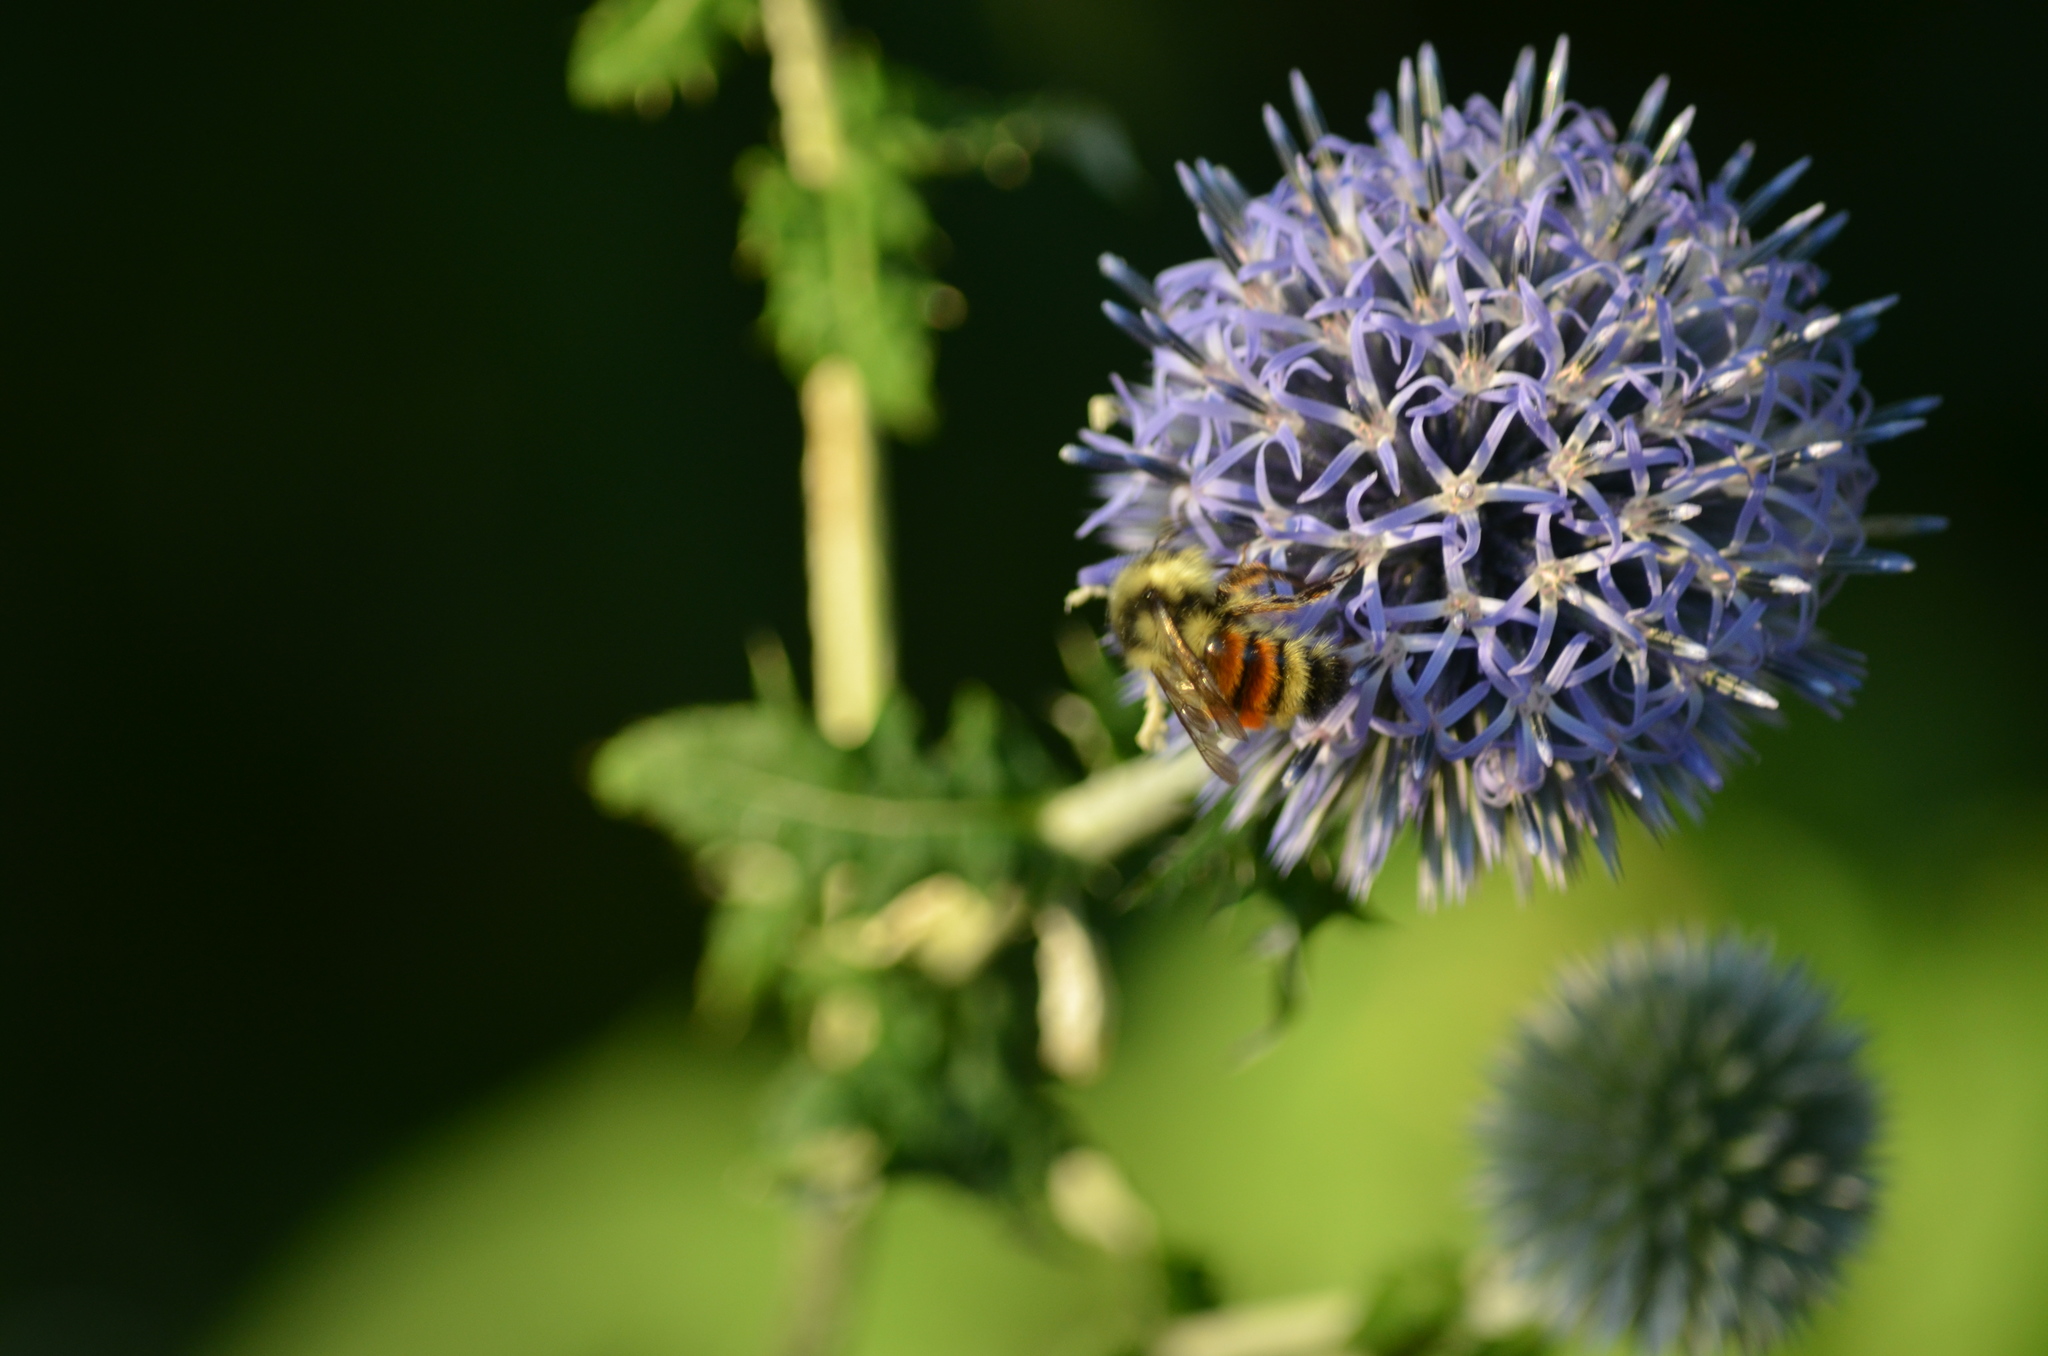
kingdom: Animalia
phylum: Arthropoda
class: Insecta
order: Hymenoptera
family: Apidae
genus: Bombus
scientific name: Bombus vancouverensis
